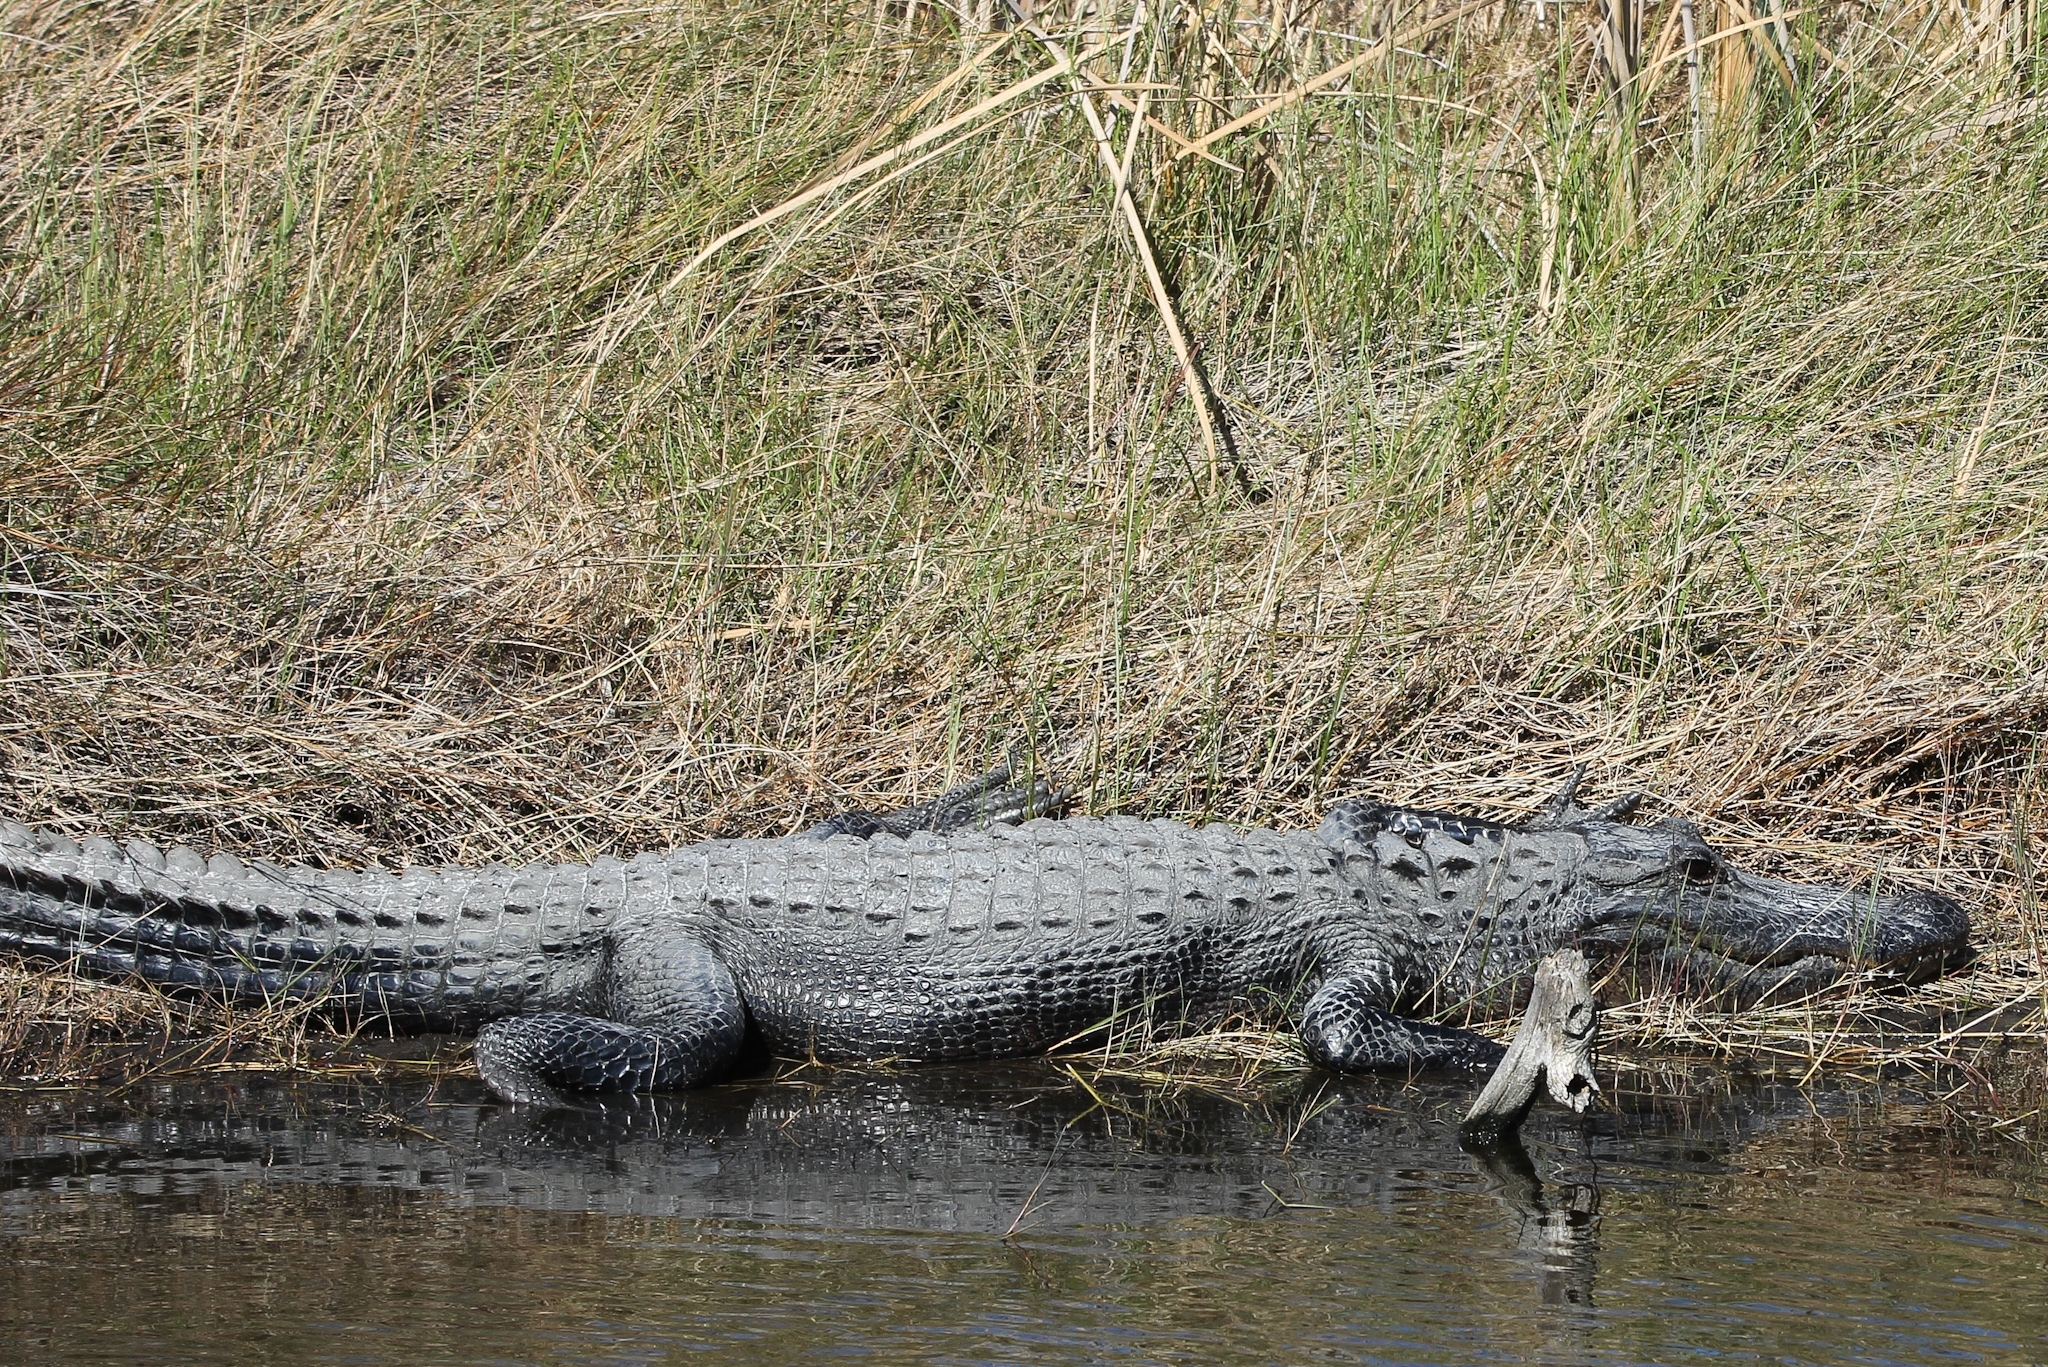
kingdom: Animalia
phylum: Chordata
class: Crocodylia
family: Alligatoridae
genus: Alligator
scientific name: Alligator mississippiensis
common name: American alligator
